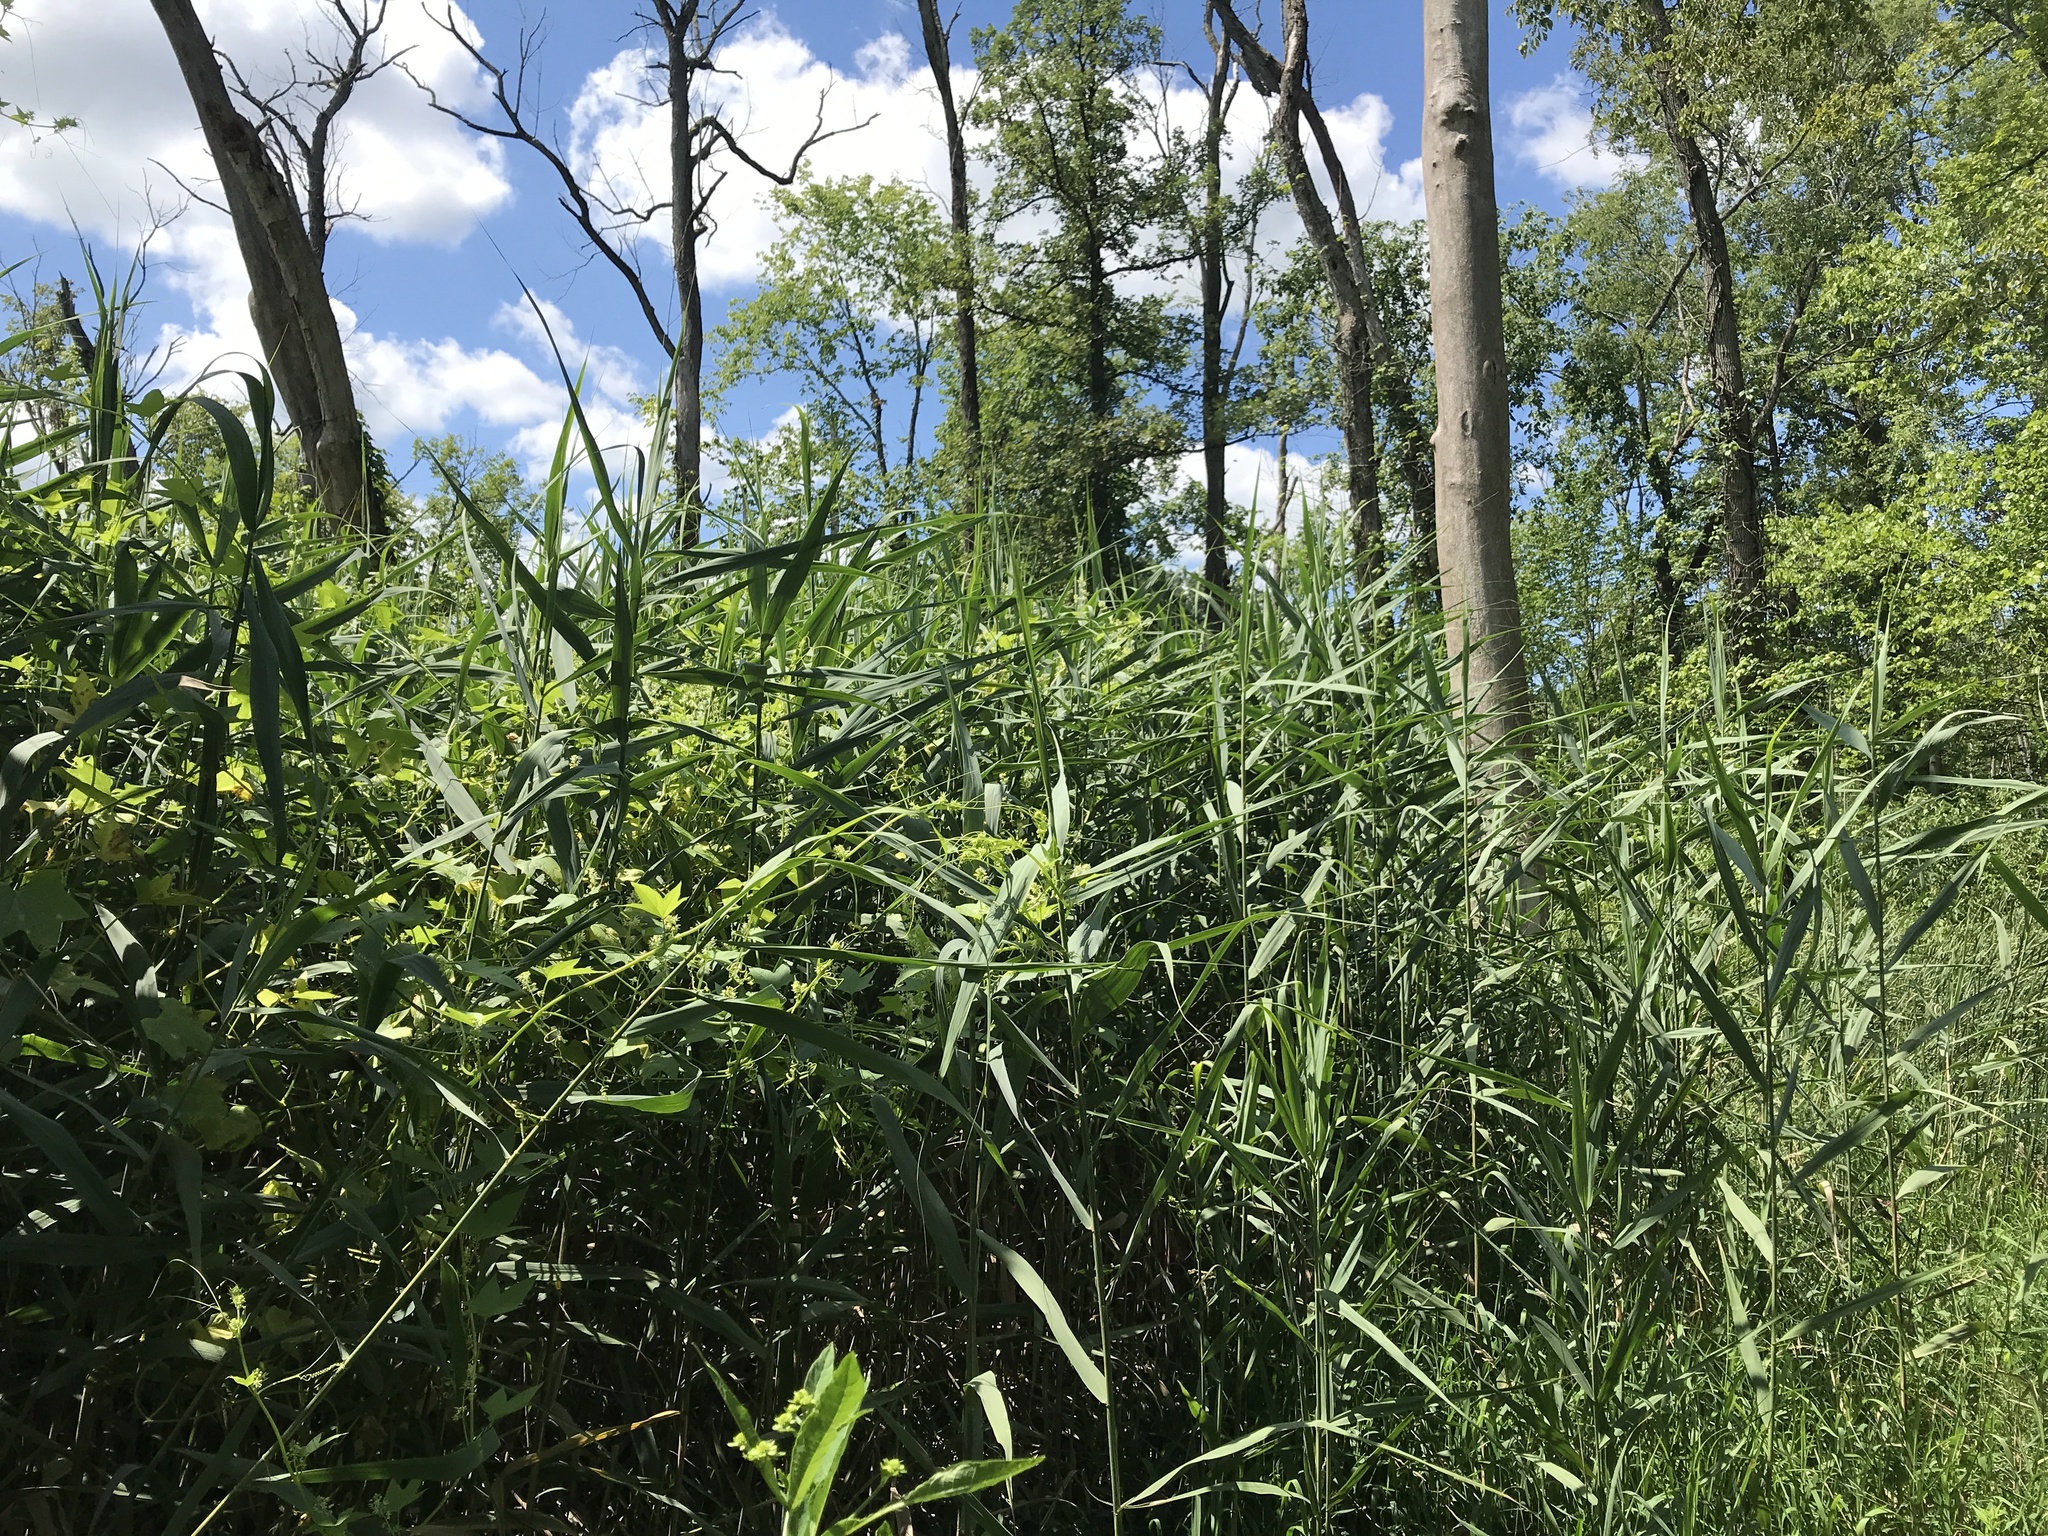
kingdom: Plantae
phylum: Tracheophyta
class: Liliopsida
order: Poales
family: Poaceae
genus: Phragmites
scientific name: Phragmites australis
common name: Common reed
